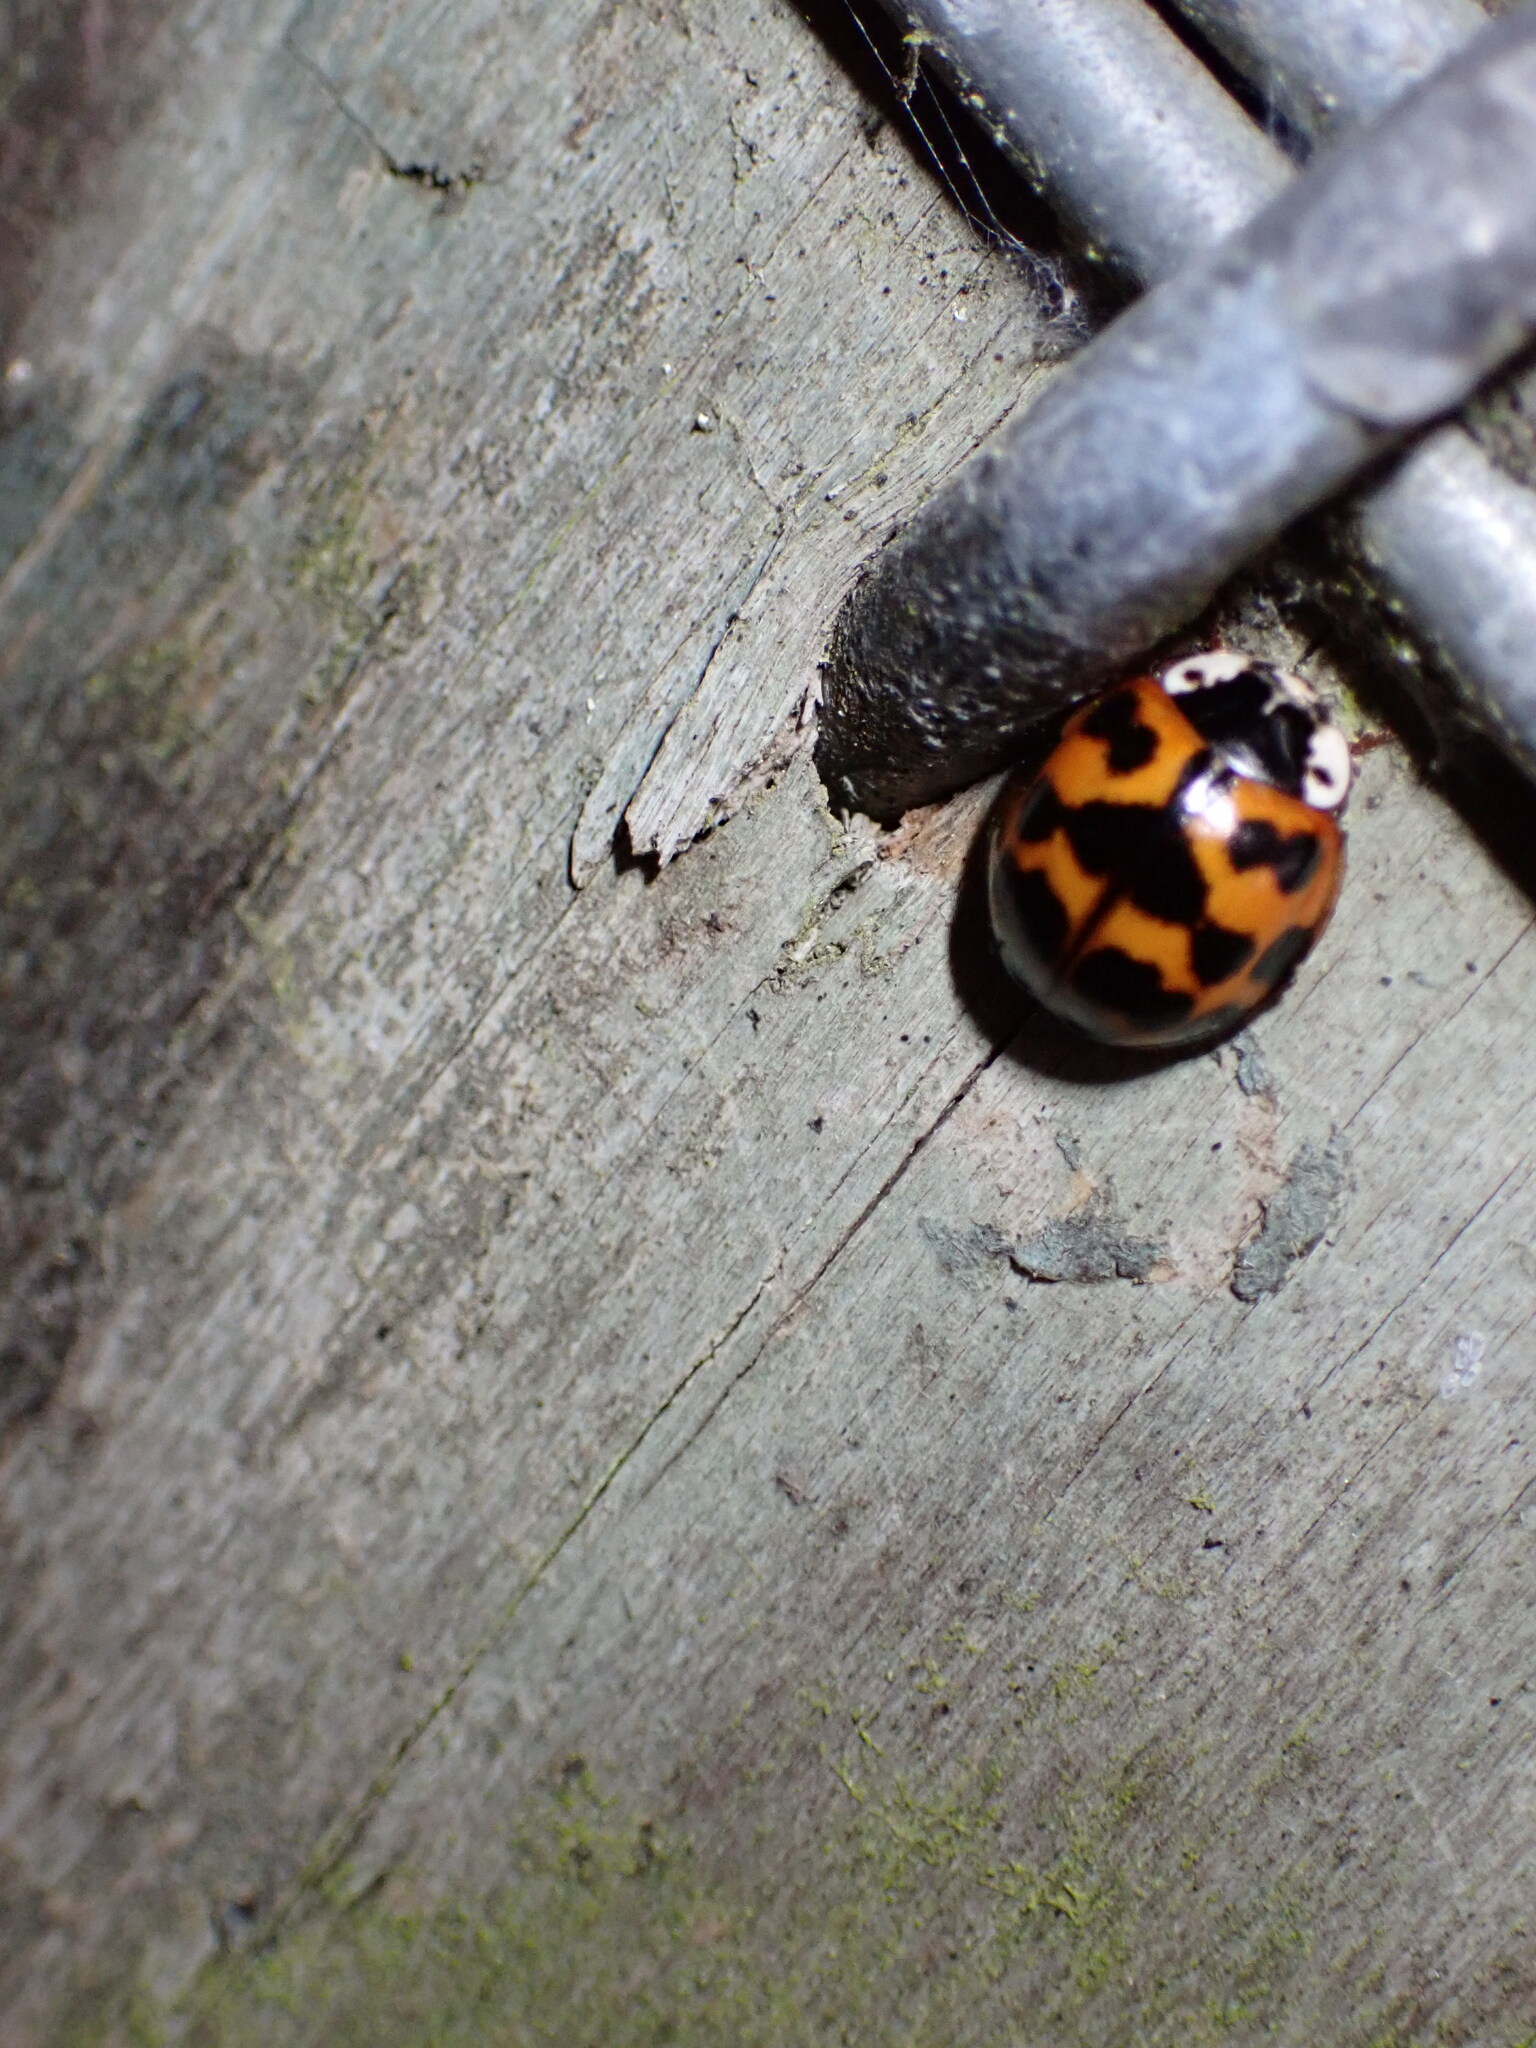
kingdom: Animalia
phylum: Arthropoda
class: Insecta
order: Coleoptera
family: Coccinellidae
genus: Harmonia
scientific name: Harmonia axyridis
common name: Harlequin ladybird
